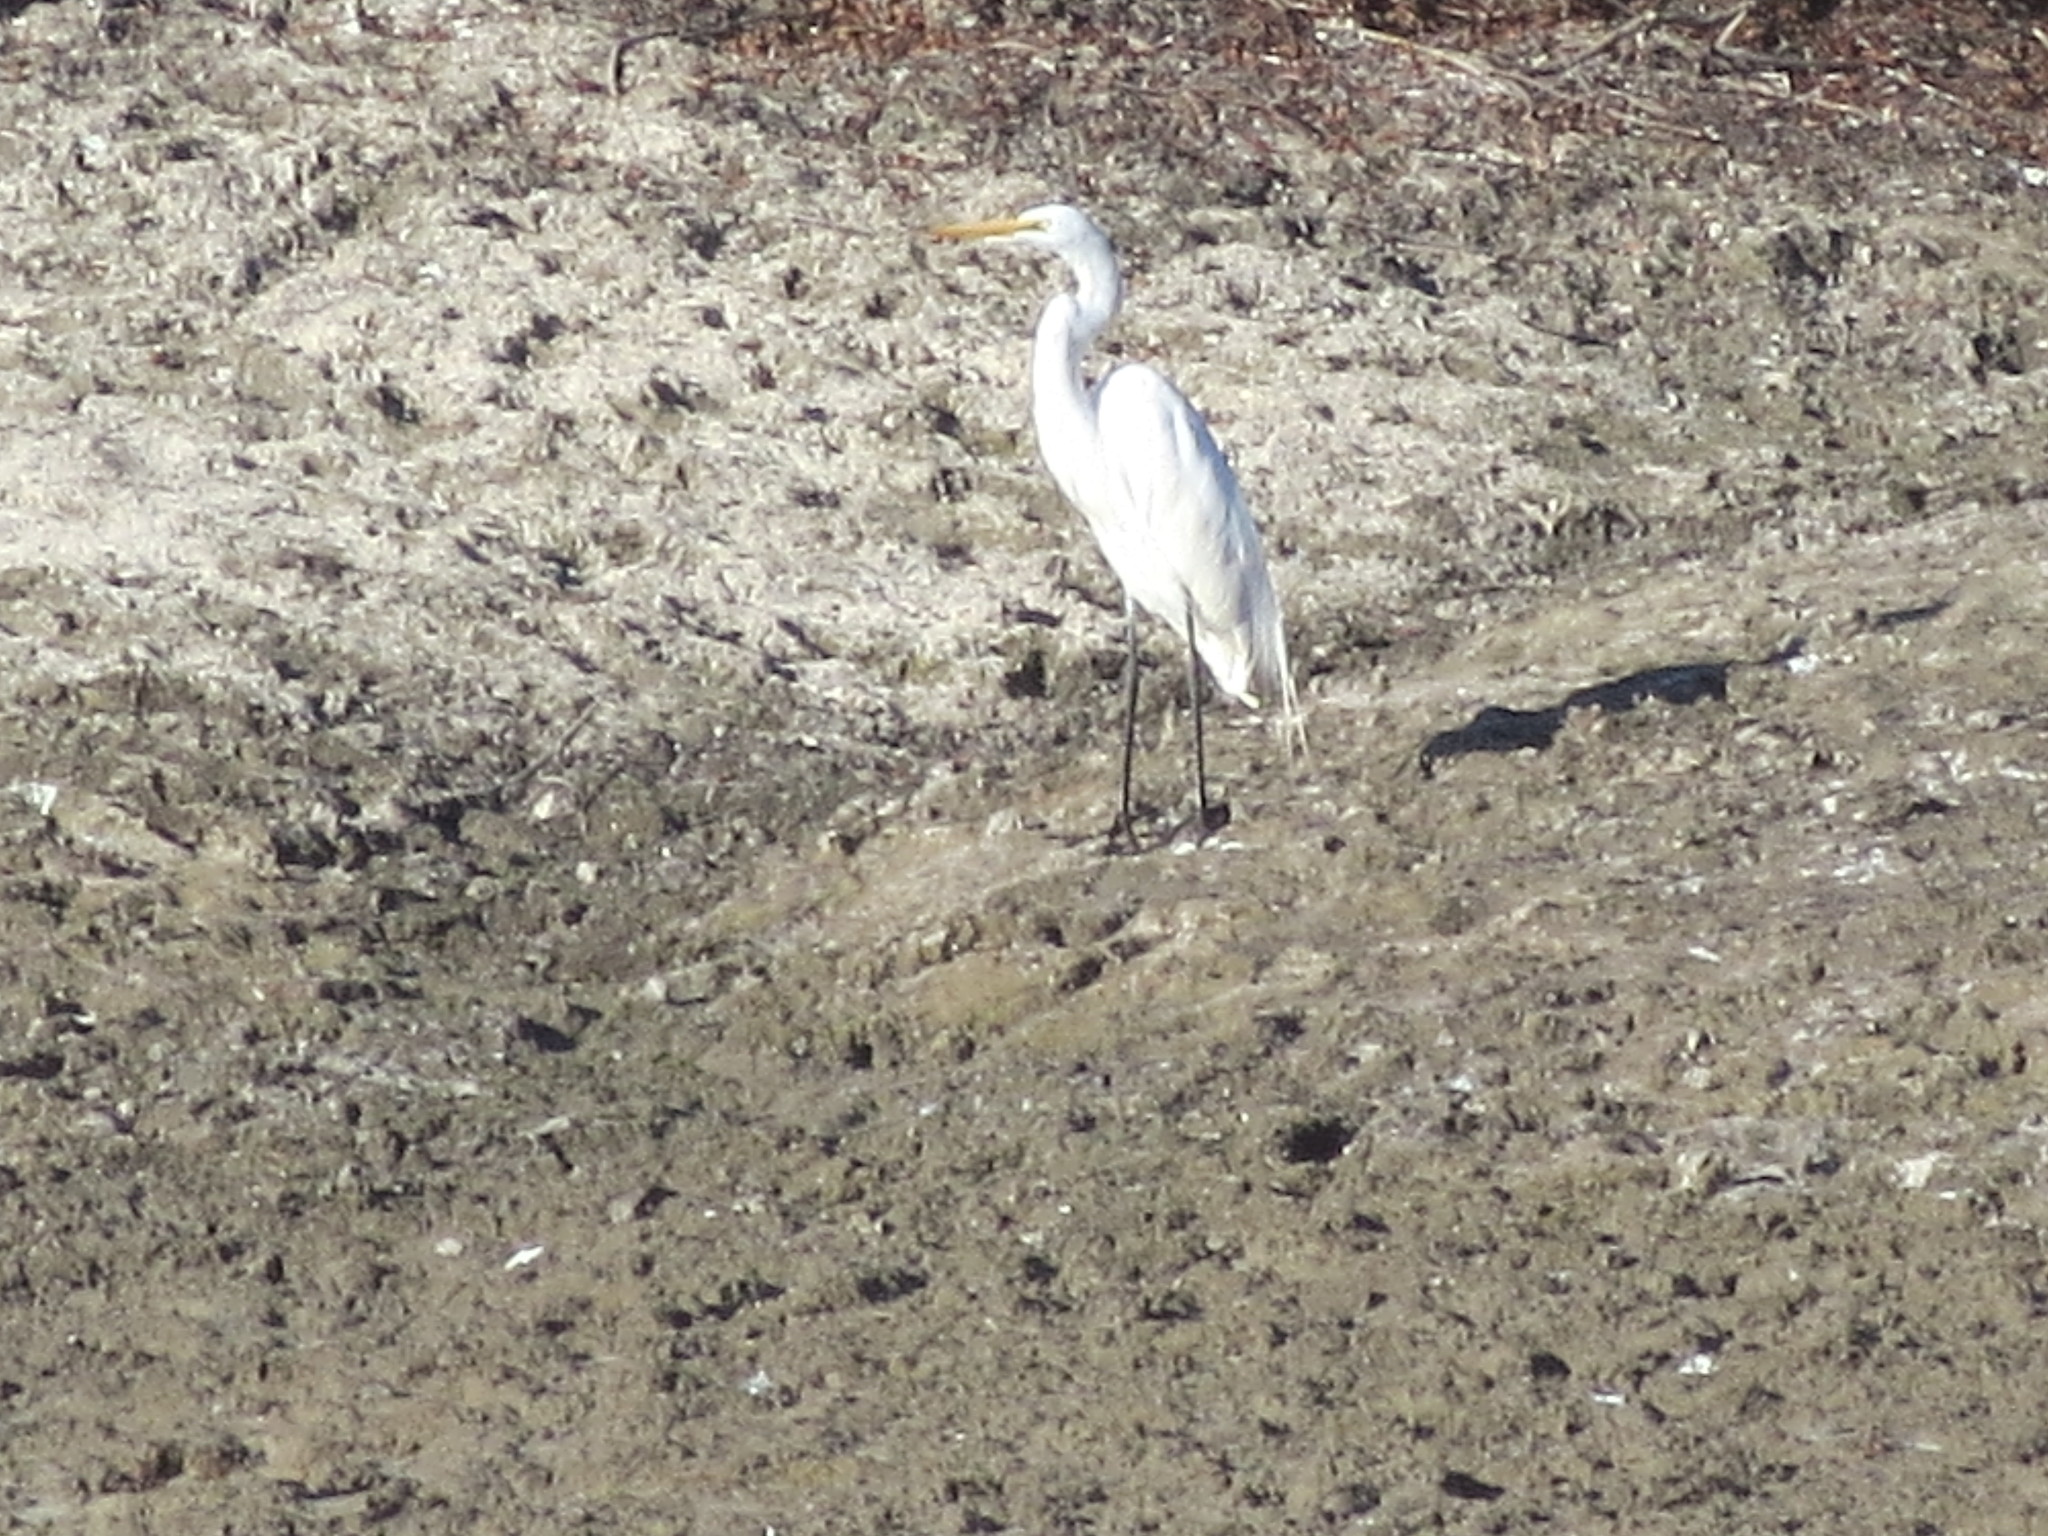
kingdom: Animalia
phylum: Chordata
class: Aves
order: Pelecaniformes
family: Ardeidae
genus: Ardea
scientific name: Ardea alba
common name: Great egret
